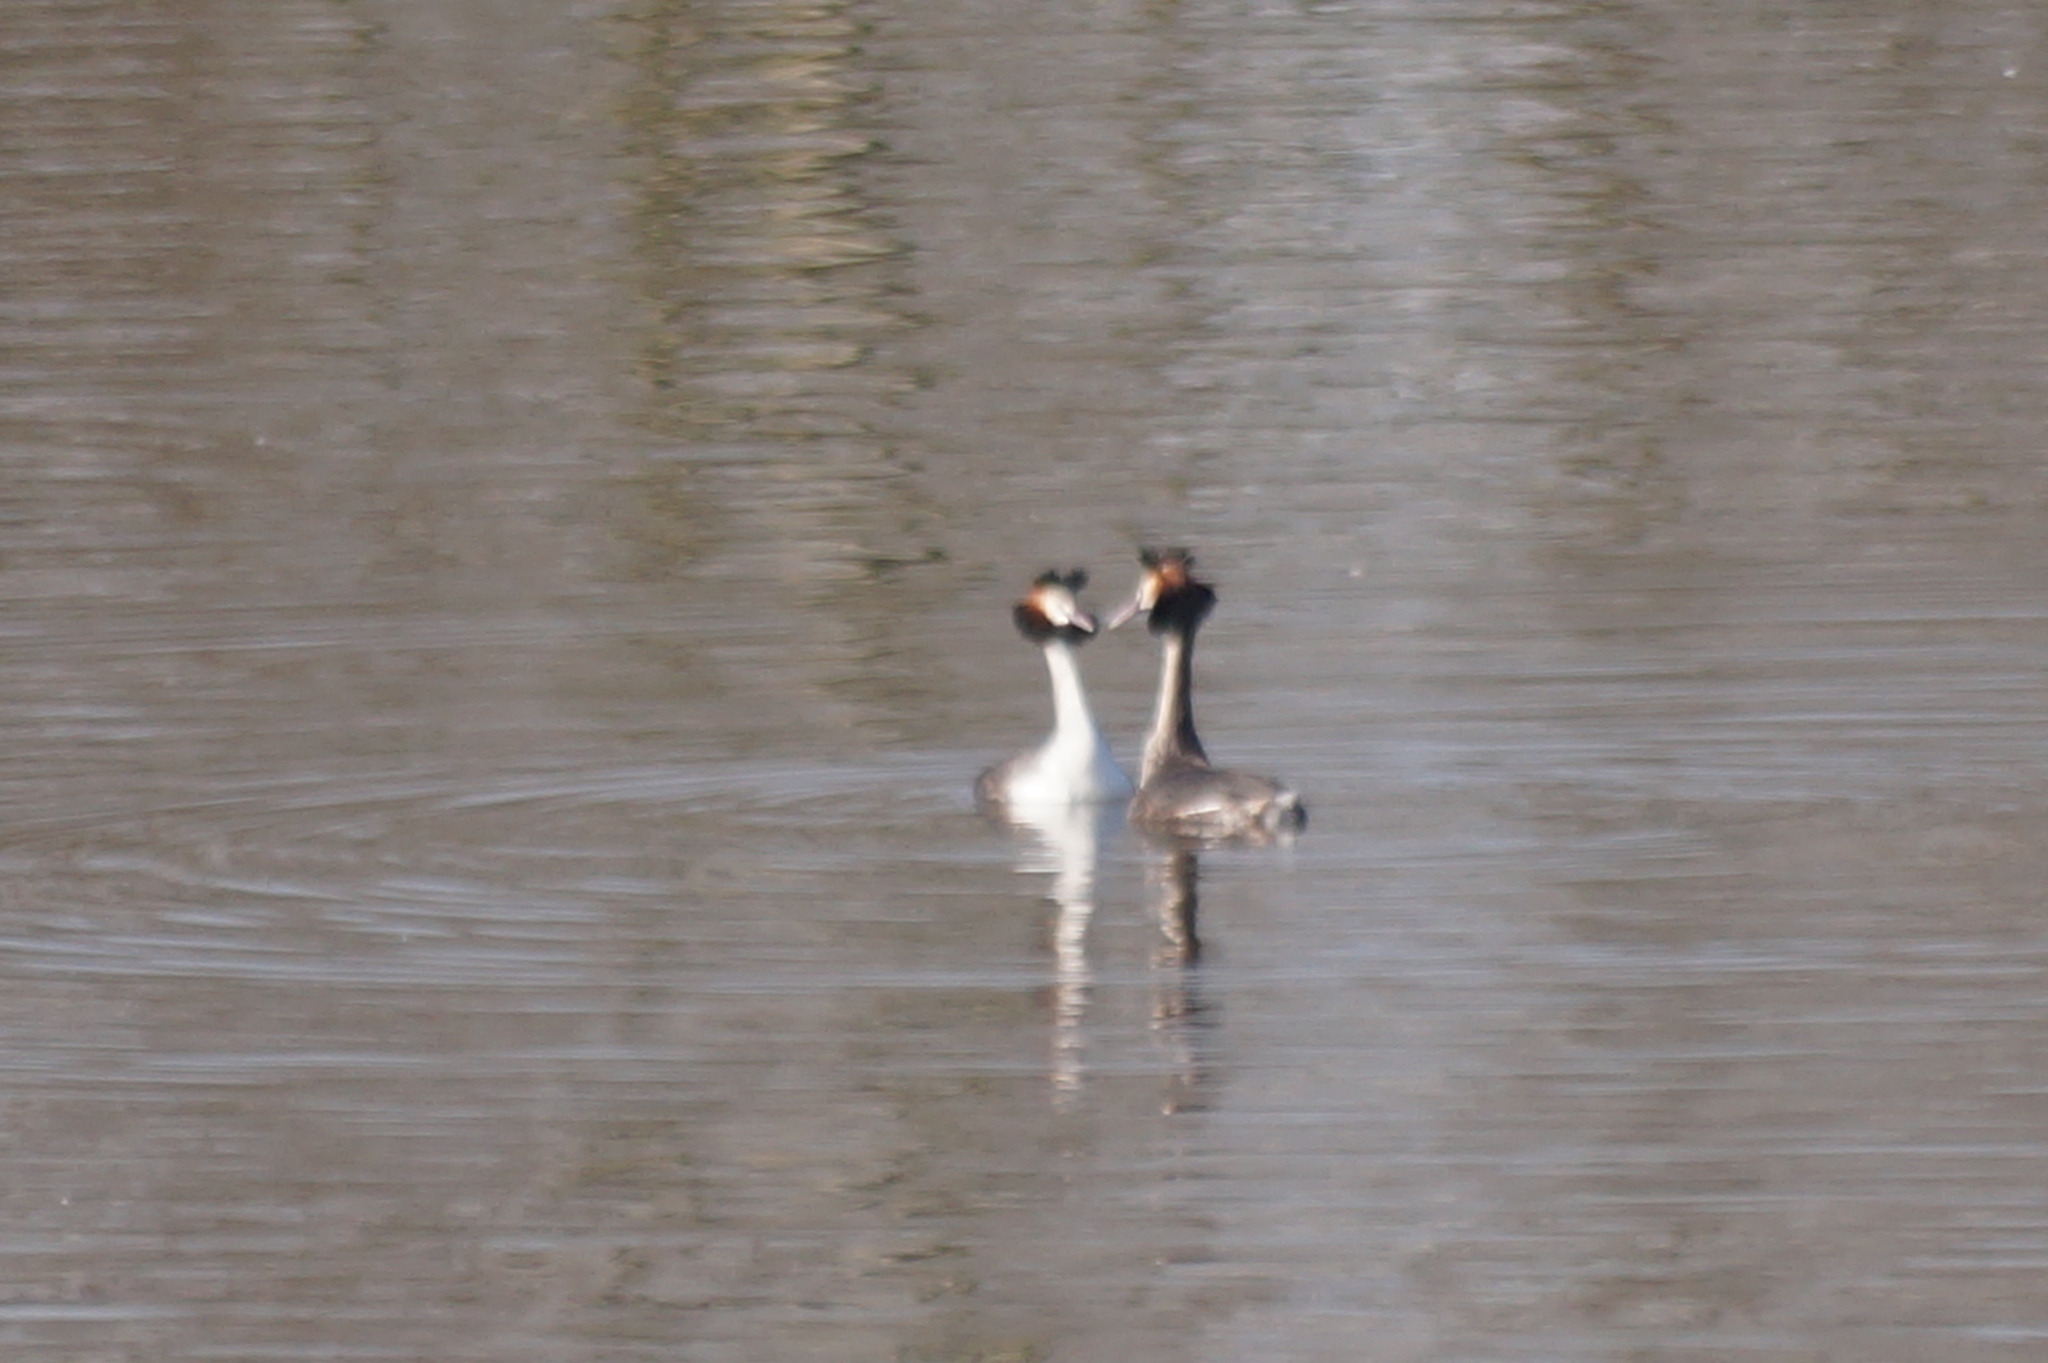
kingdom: Animalia
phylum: Chordata
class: Aves
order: Podicipediformes
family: Podicipedidae
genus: Podiceps
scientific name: Podiceps cristatus
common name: Great crested grebe
